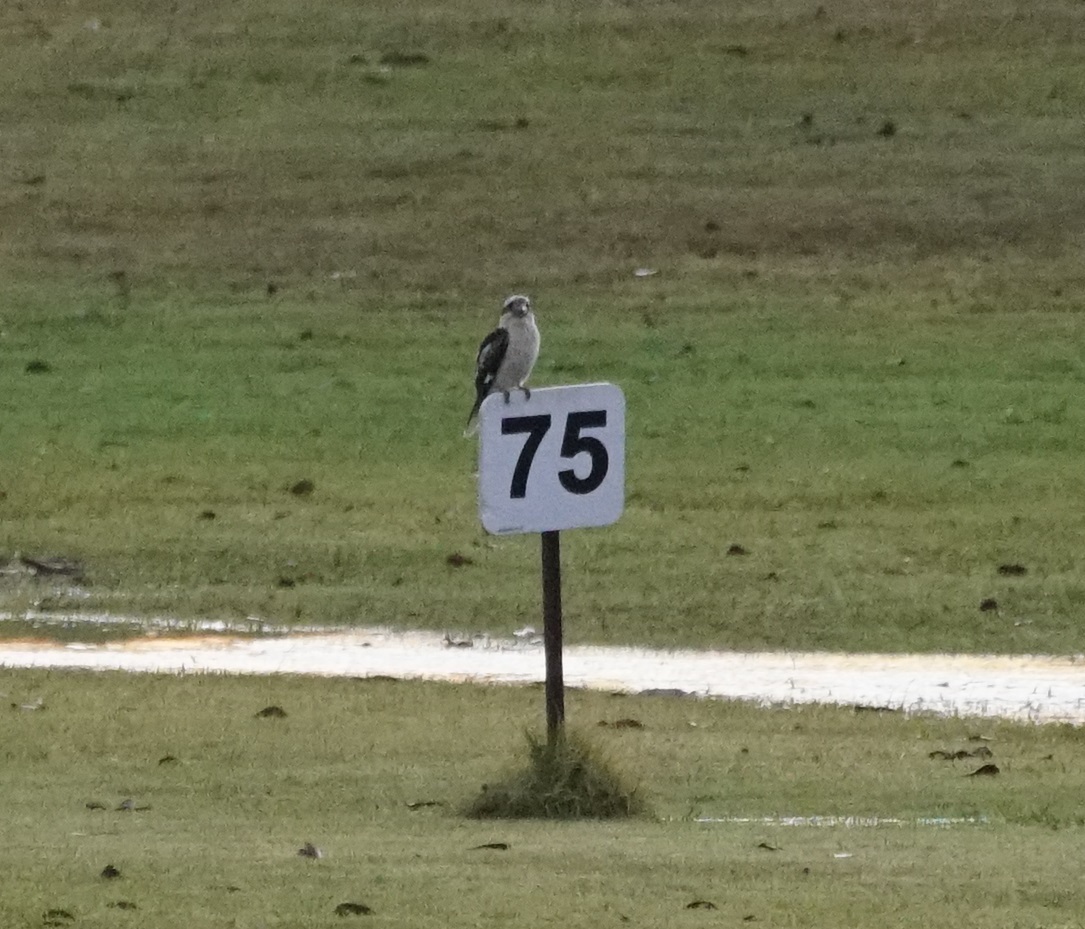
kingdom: Animalia
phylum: Chordata
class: Aves
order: Coraciiformes
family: Alcedinidae
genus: Dacelo
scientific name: Dacelo novaeguineae
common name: Laughing kookaburra
